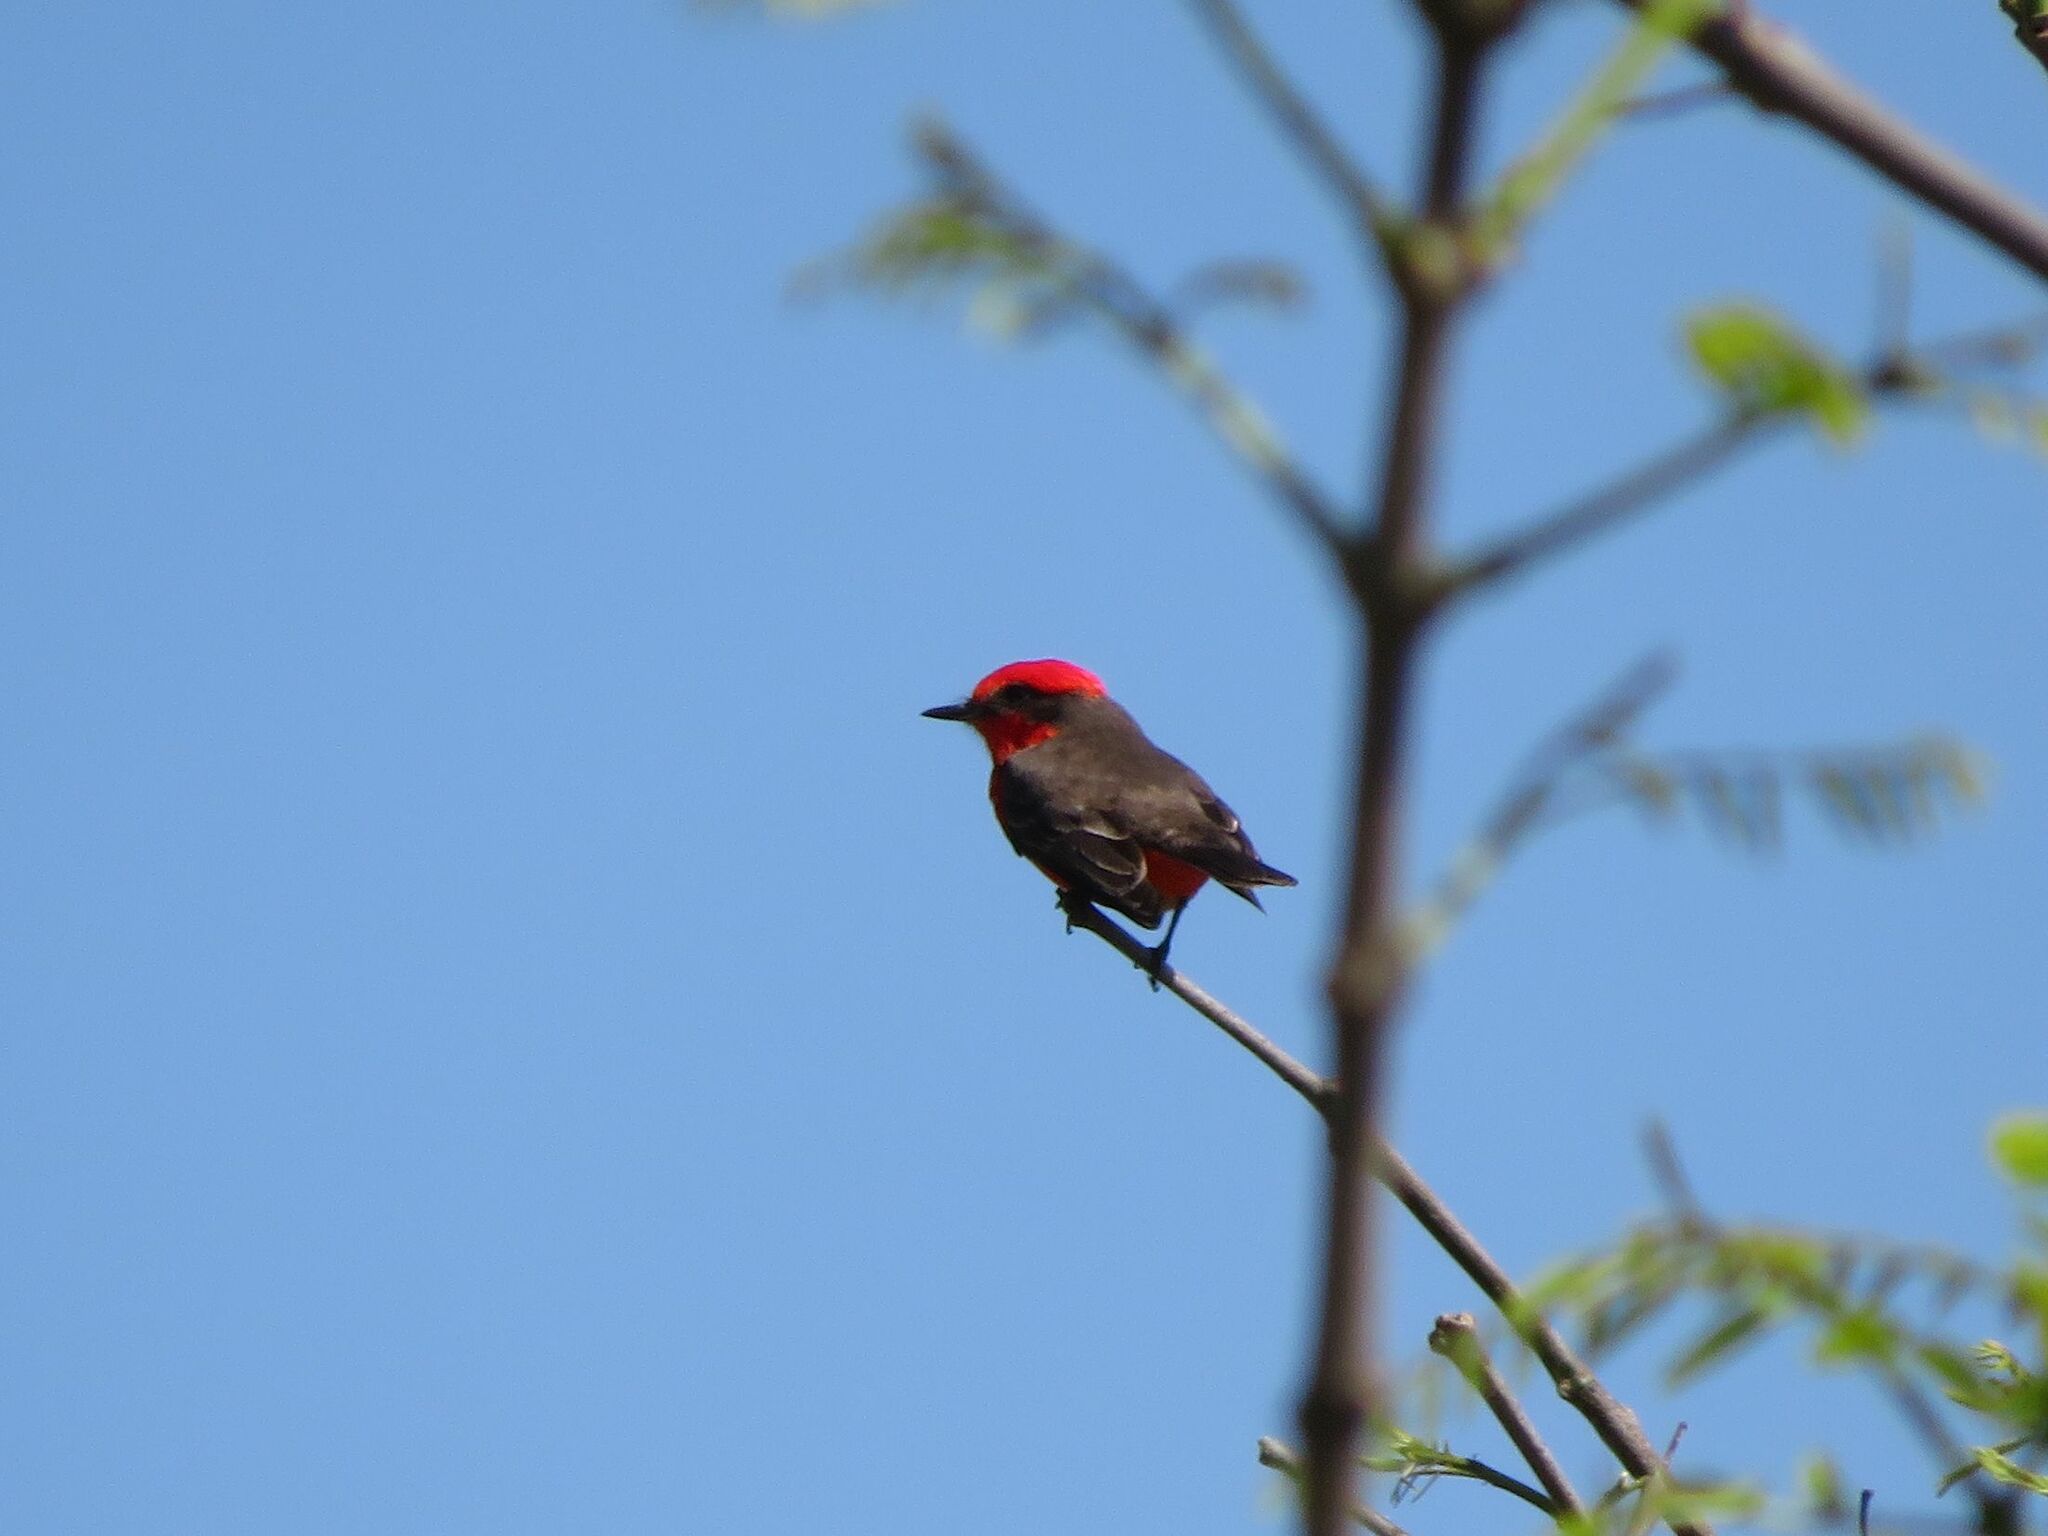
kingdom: Animalia
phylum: Chordata
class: Aves
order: Passeriformes
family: Tyrannidae
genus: Pyrocephalus
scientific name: Pyrocephalus rubinus
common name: Vermilion flycatcher
